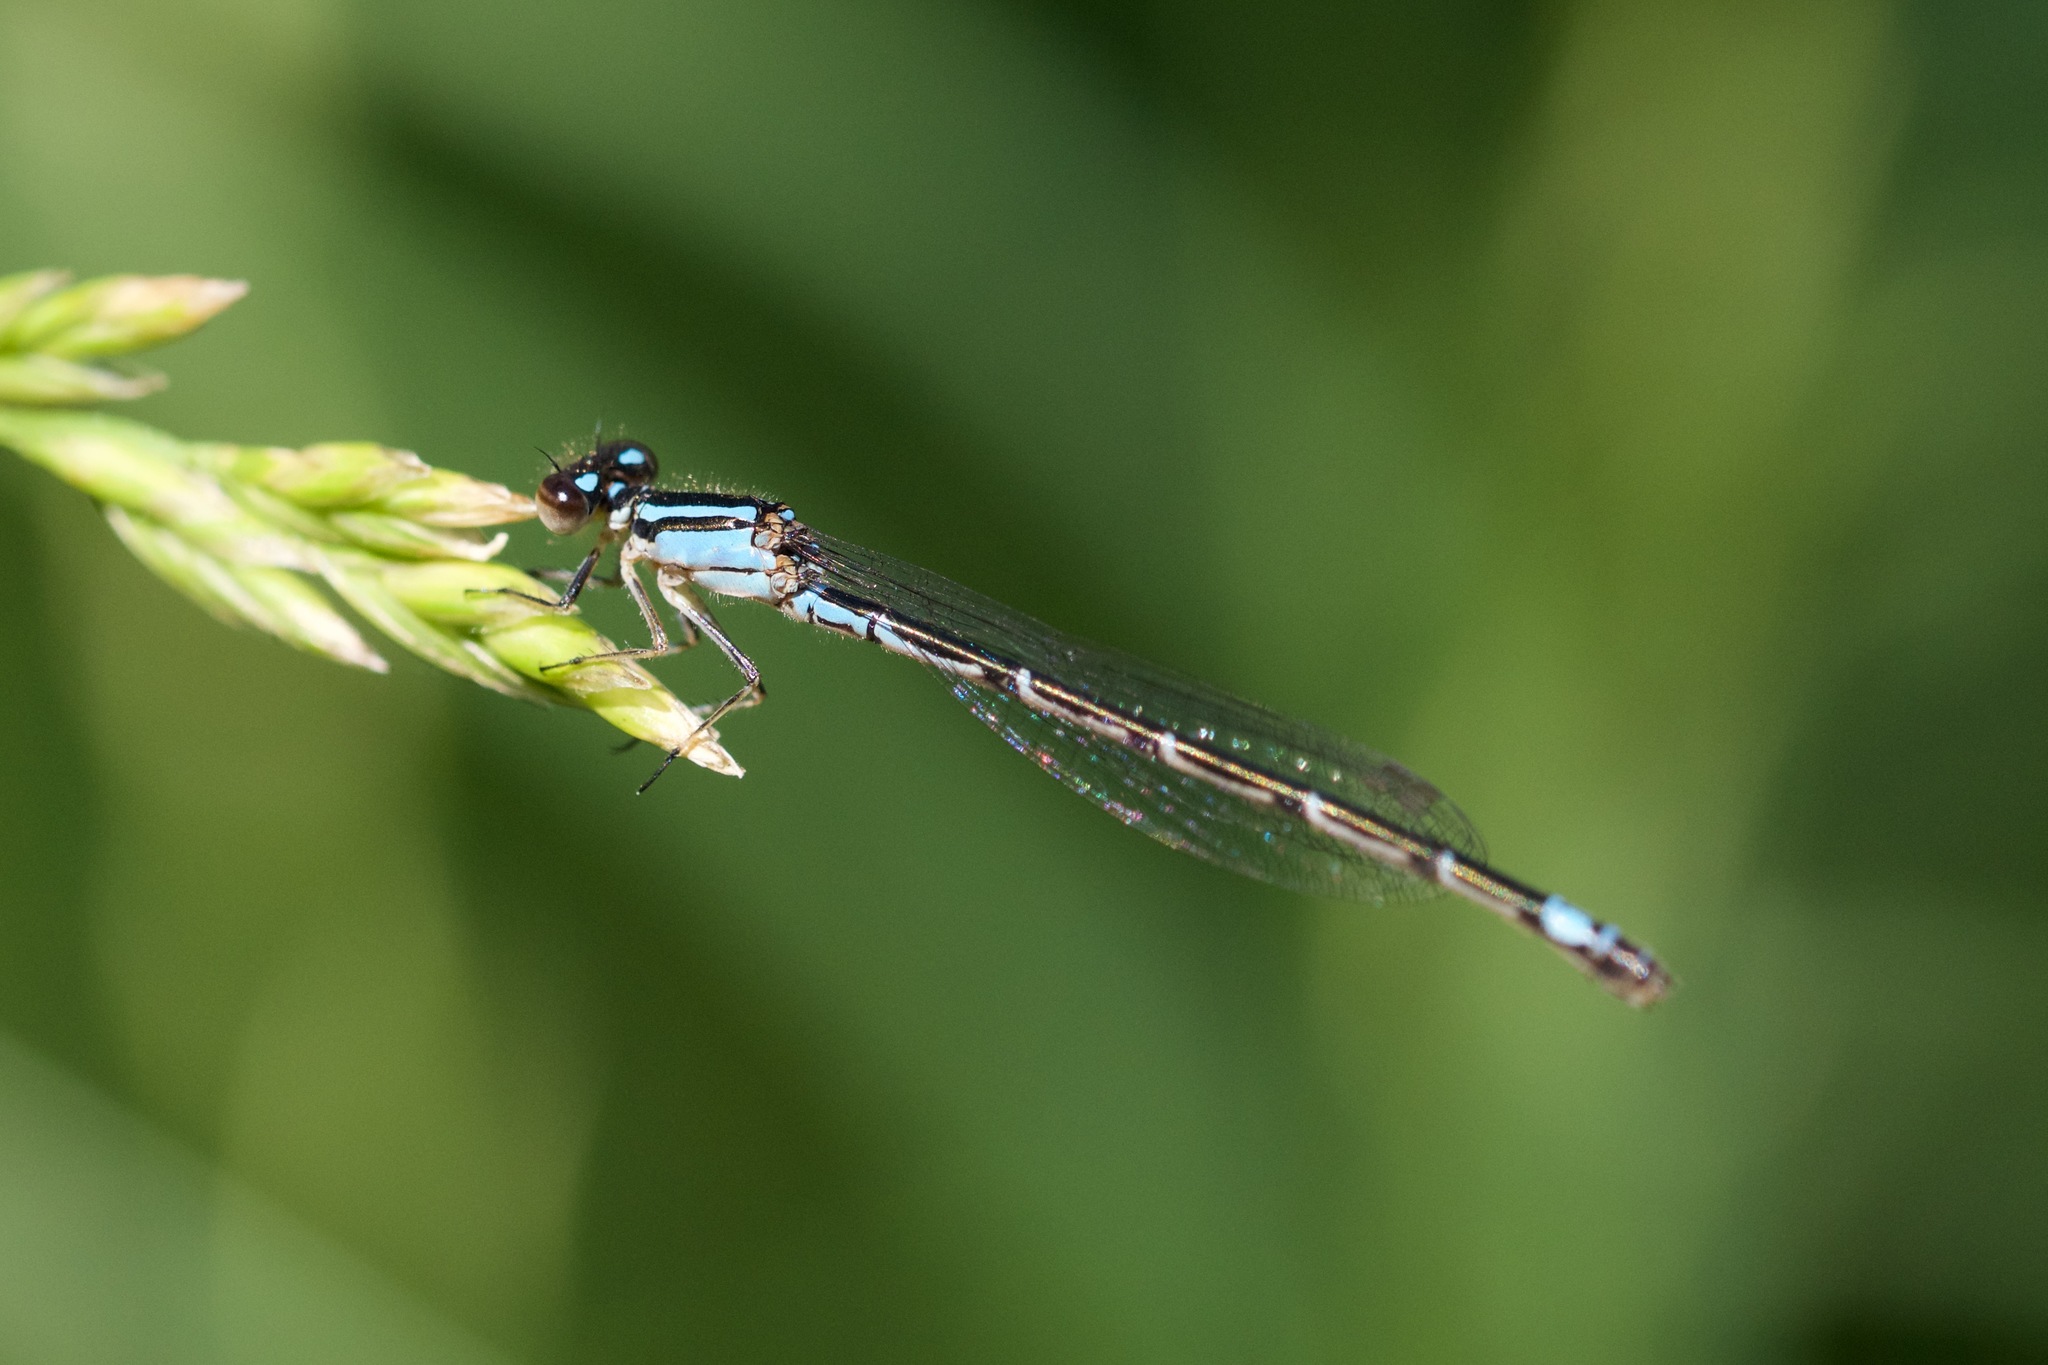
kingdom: Animalia
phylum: Arthropoda
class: Insecta
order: Odonata
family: Coenagrionidae
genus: Enallagma
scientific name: Enallagma geminatum
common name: Skimming bluet
